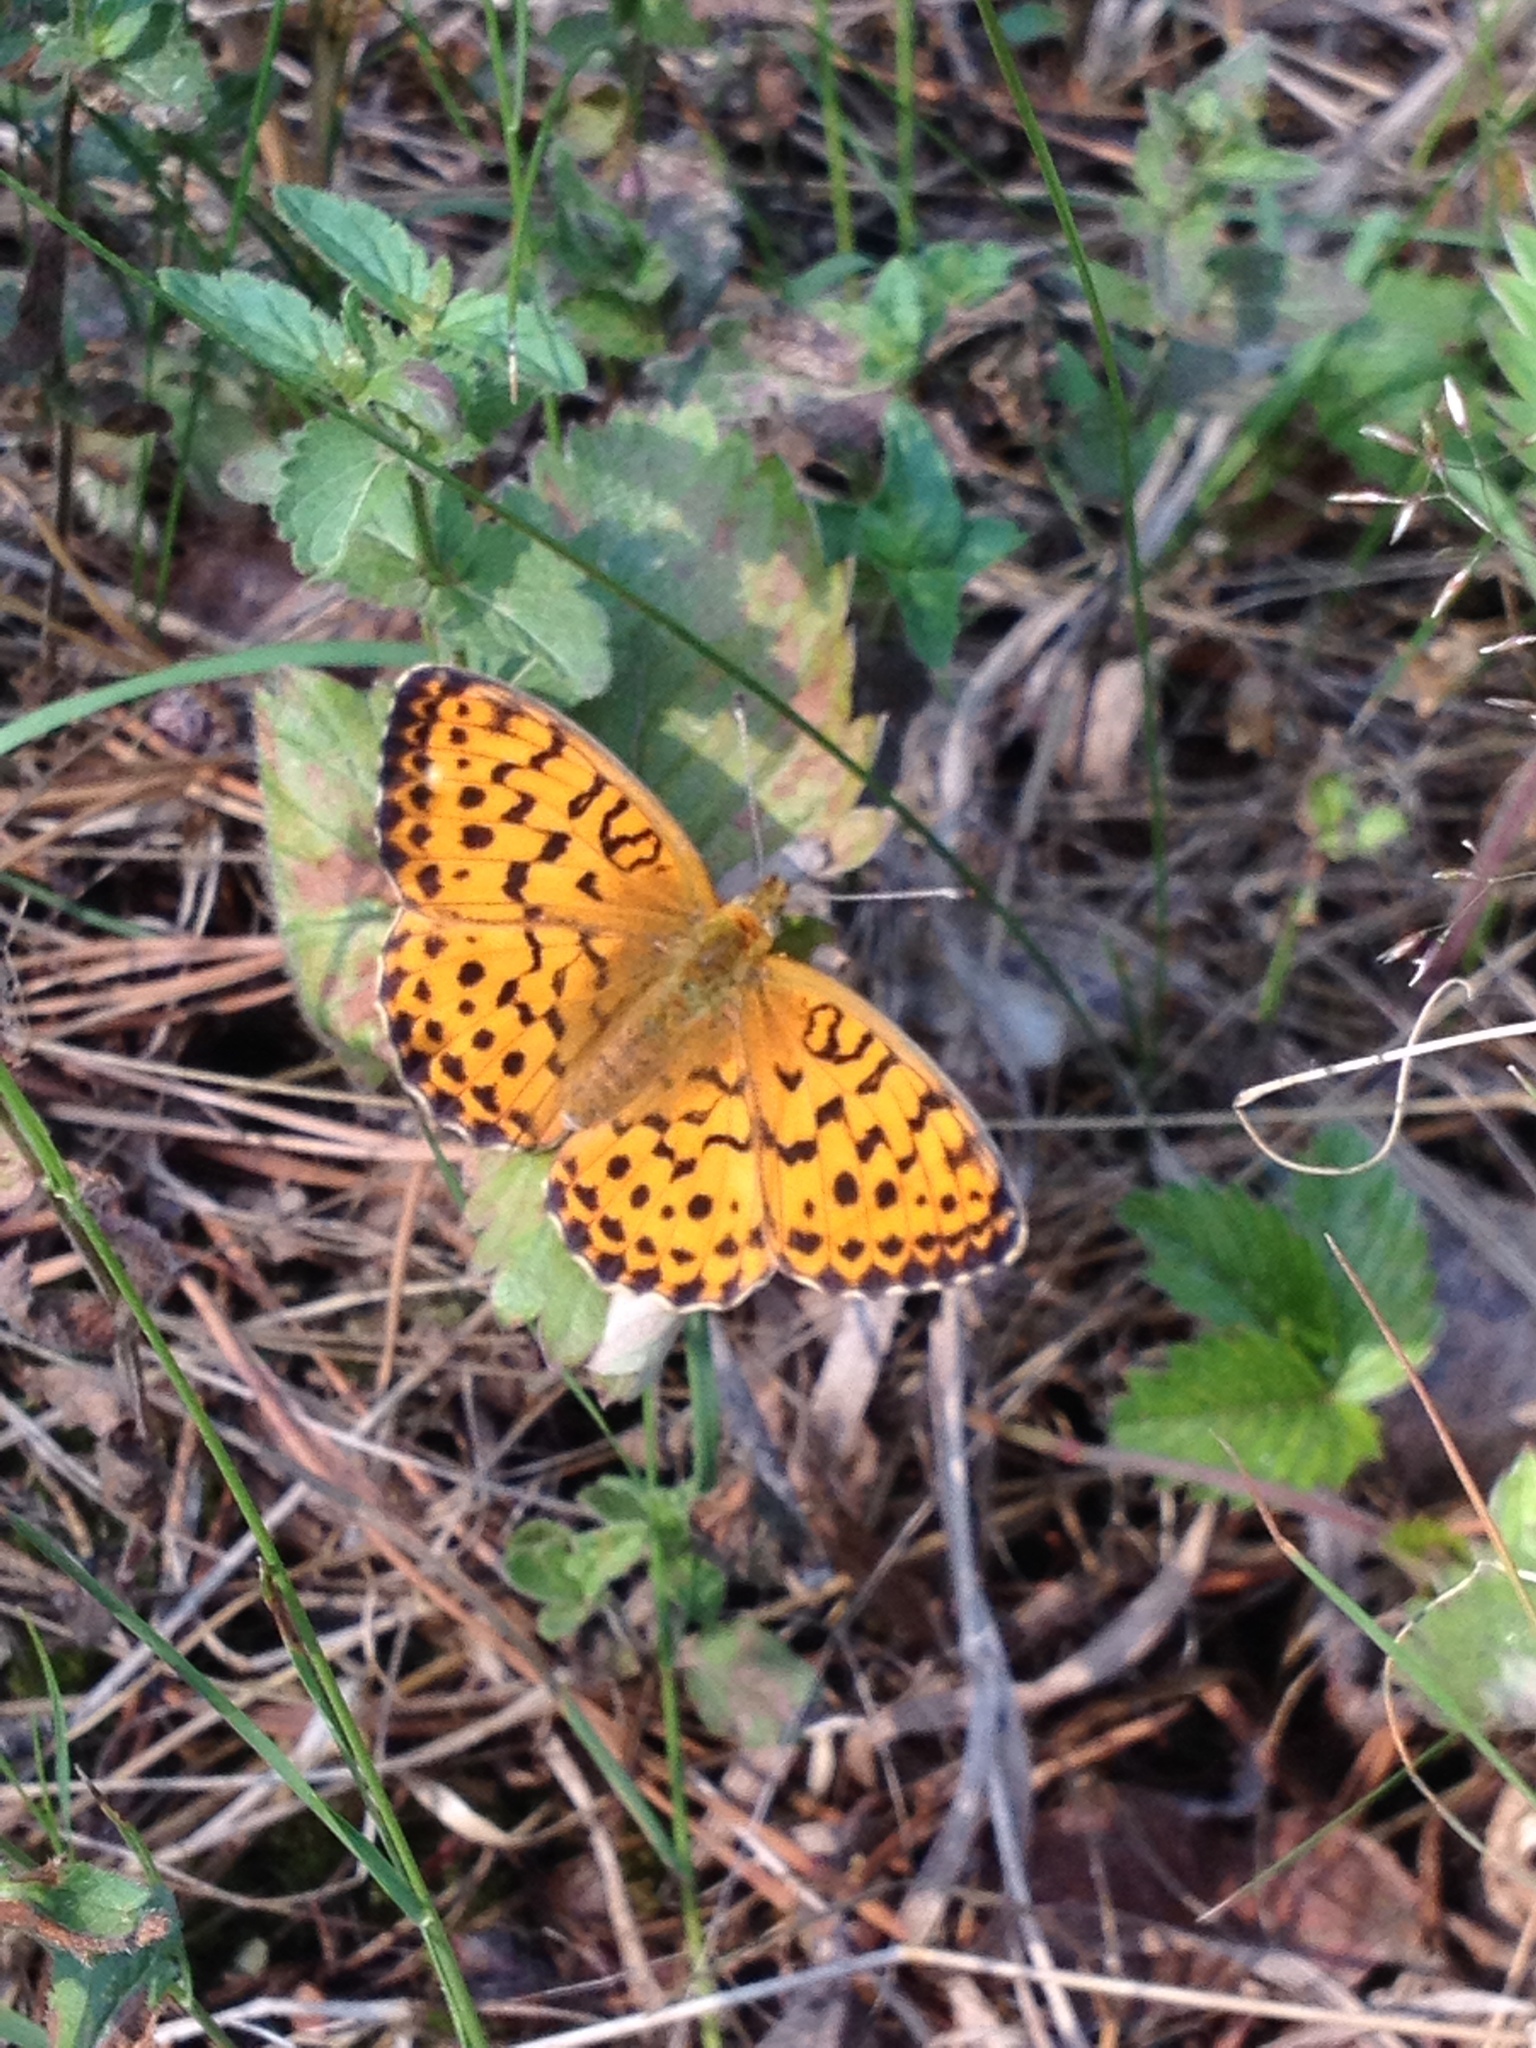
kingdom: Animalia
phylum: Arthropoda
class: Insecta
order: Lepidoptera
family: Nymphalidae
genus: Brenthis
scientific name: Brenthis daphne
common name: Marbled fritillary
